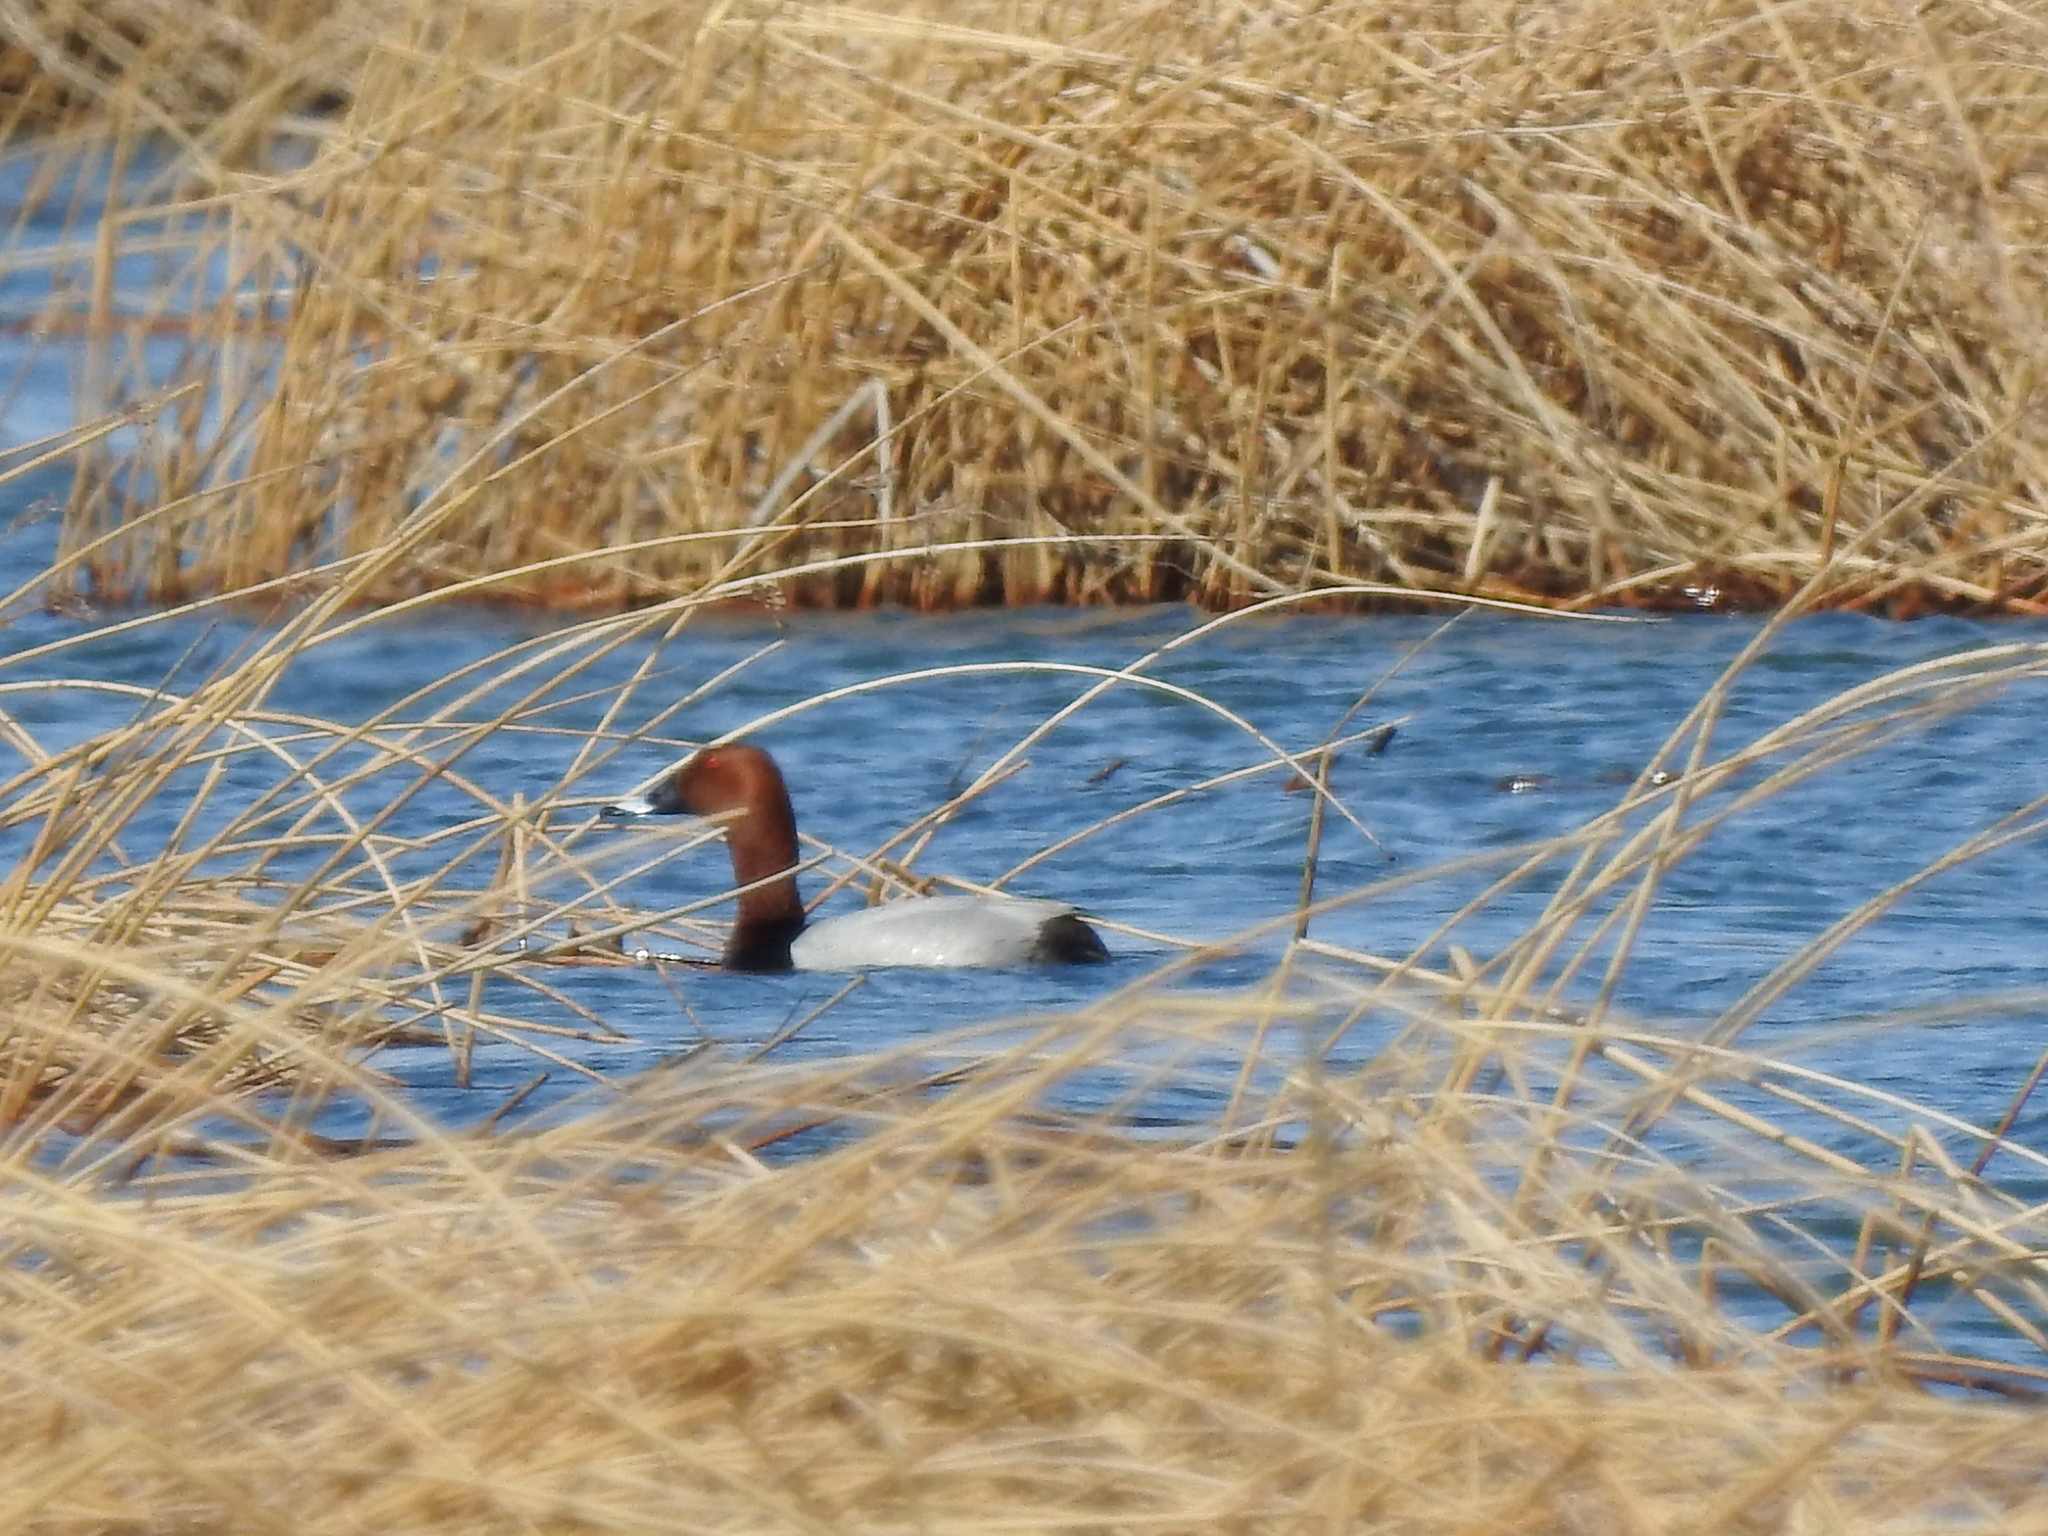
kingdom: Animalia
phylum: Chordata
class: Aves
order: Anseriformes
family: Anatidae
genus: Aythya
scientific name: Aythya ferina
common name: Common pochard
